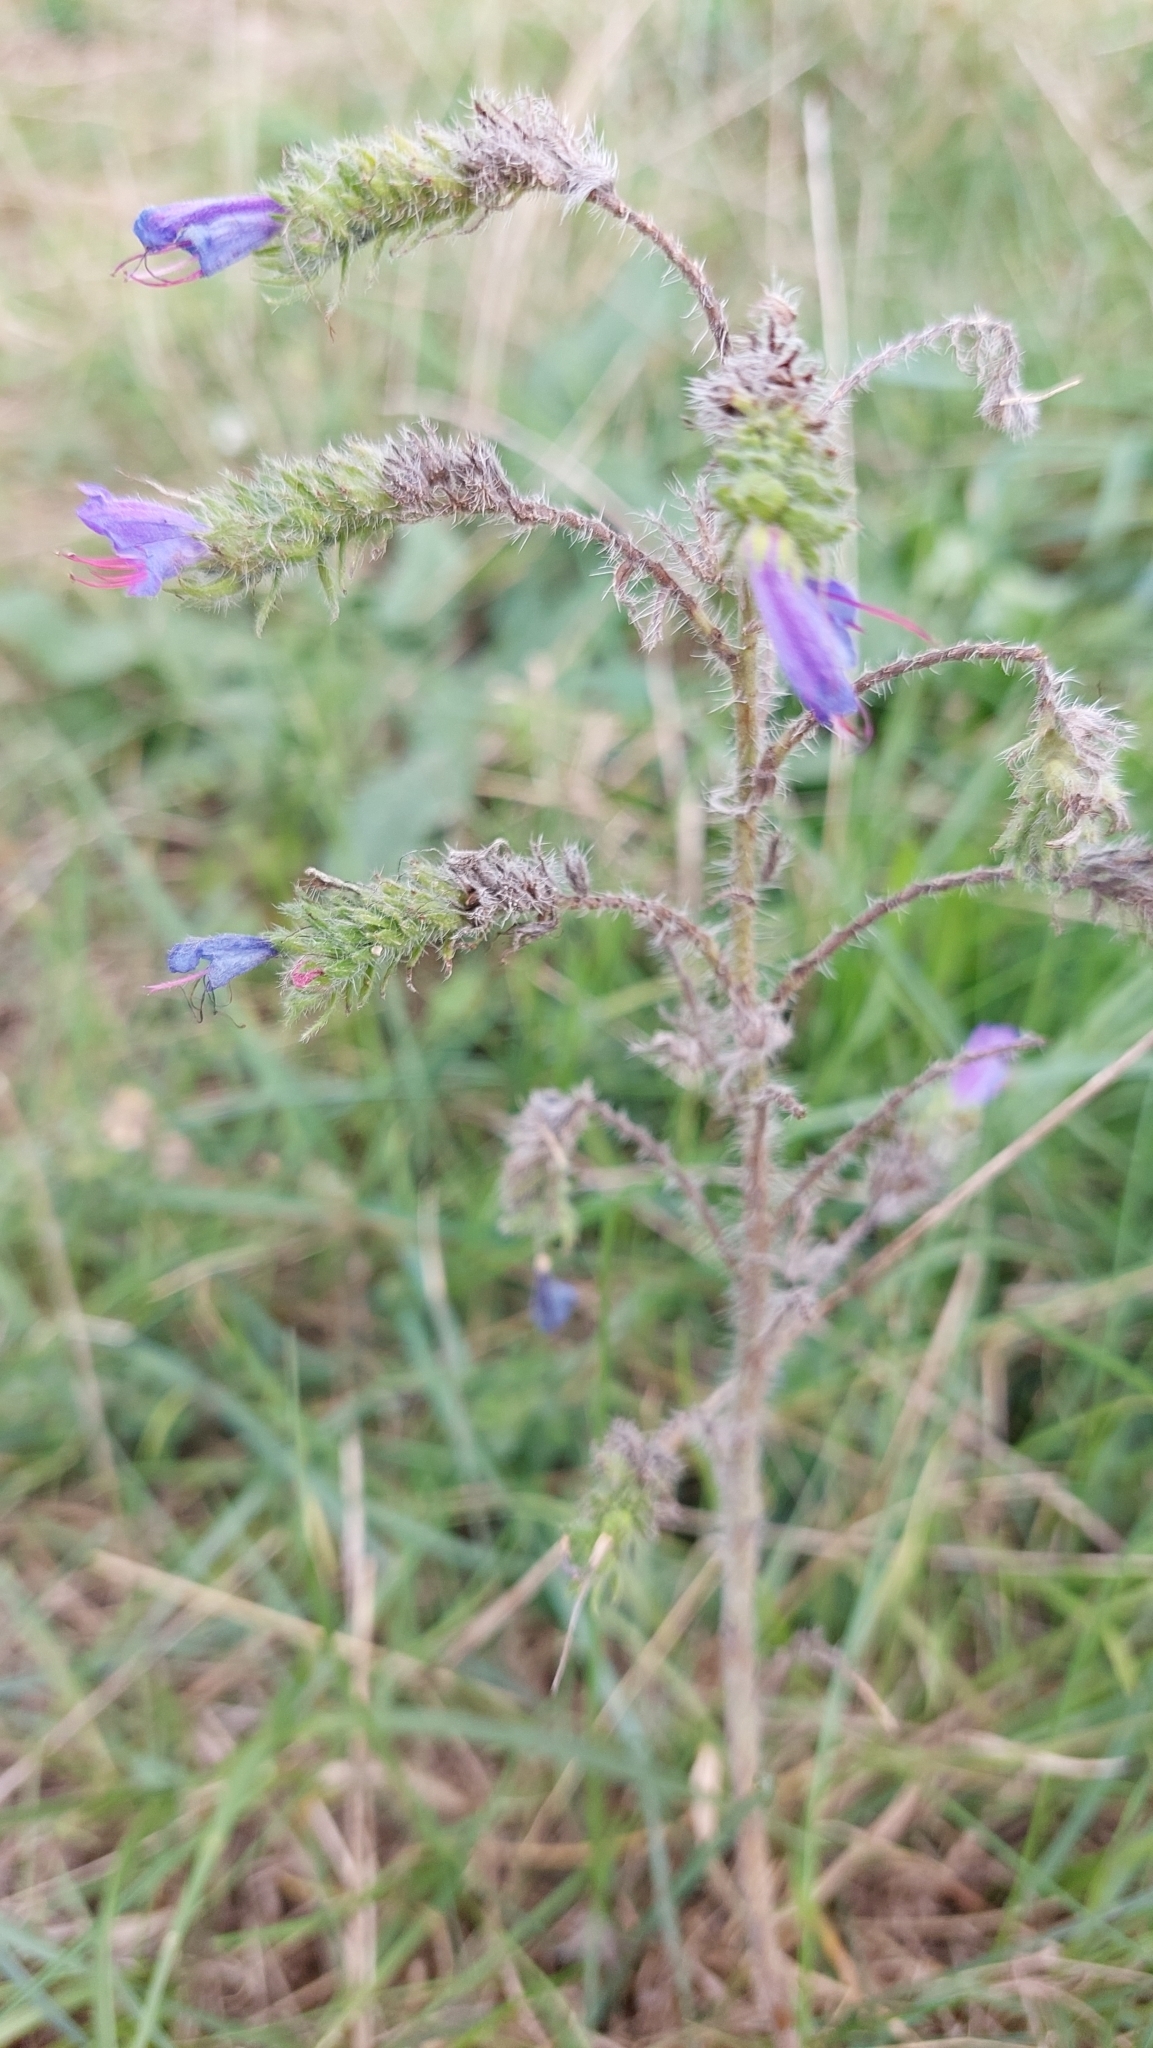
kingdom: Plantae
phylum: Tracheophyta
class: Magnoliopsida
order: Boraginales
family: Boraginaceae
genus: Echium
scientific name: Echium vulgare
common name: Common viper's bugloss
